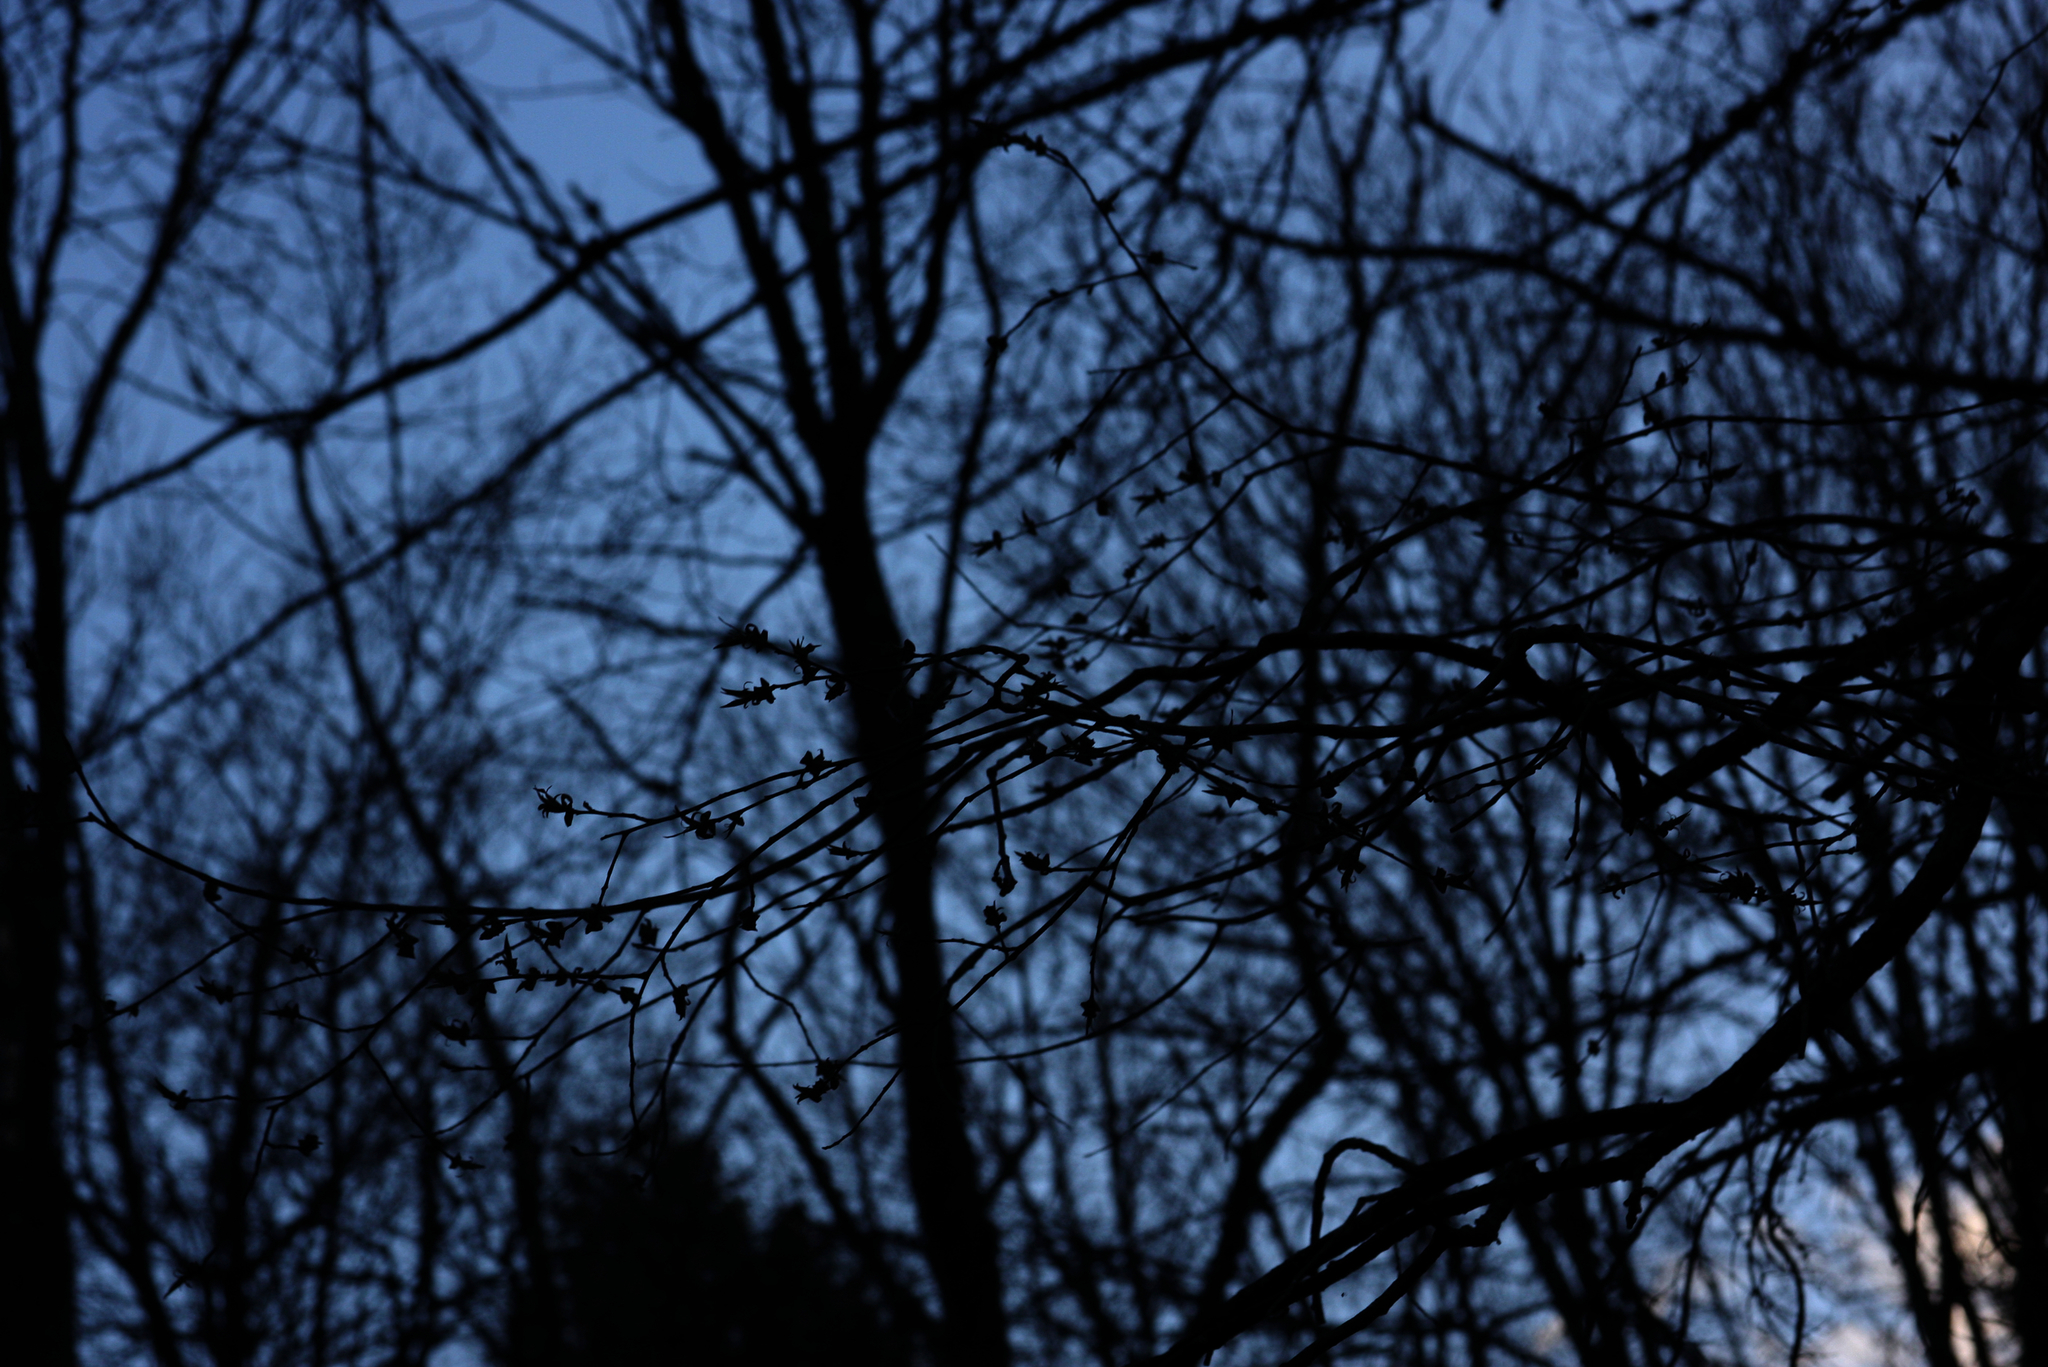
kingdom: Plantae
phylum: Tracheophyta
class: Magnoliopsida
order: Rosales
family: Rosaceae
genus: Prunus
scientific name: Prunus serotina
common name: Black cherry
